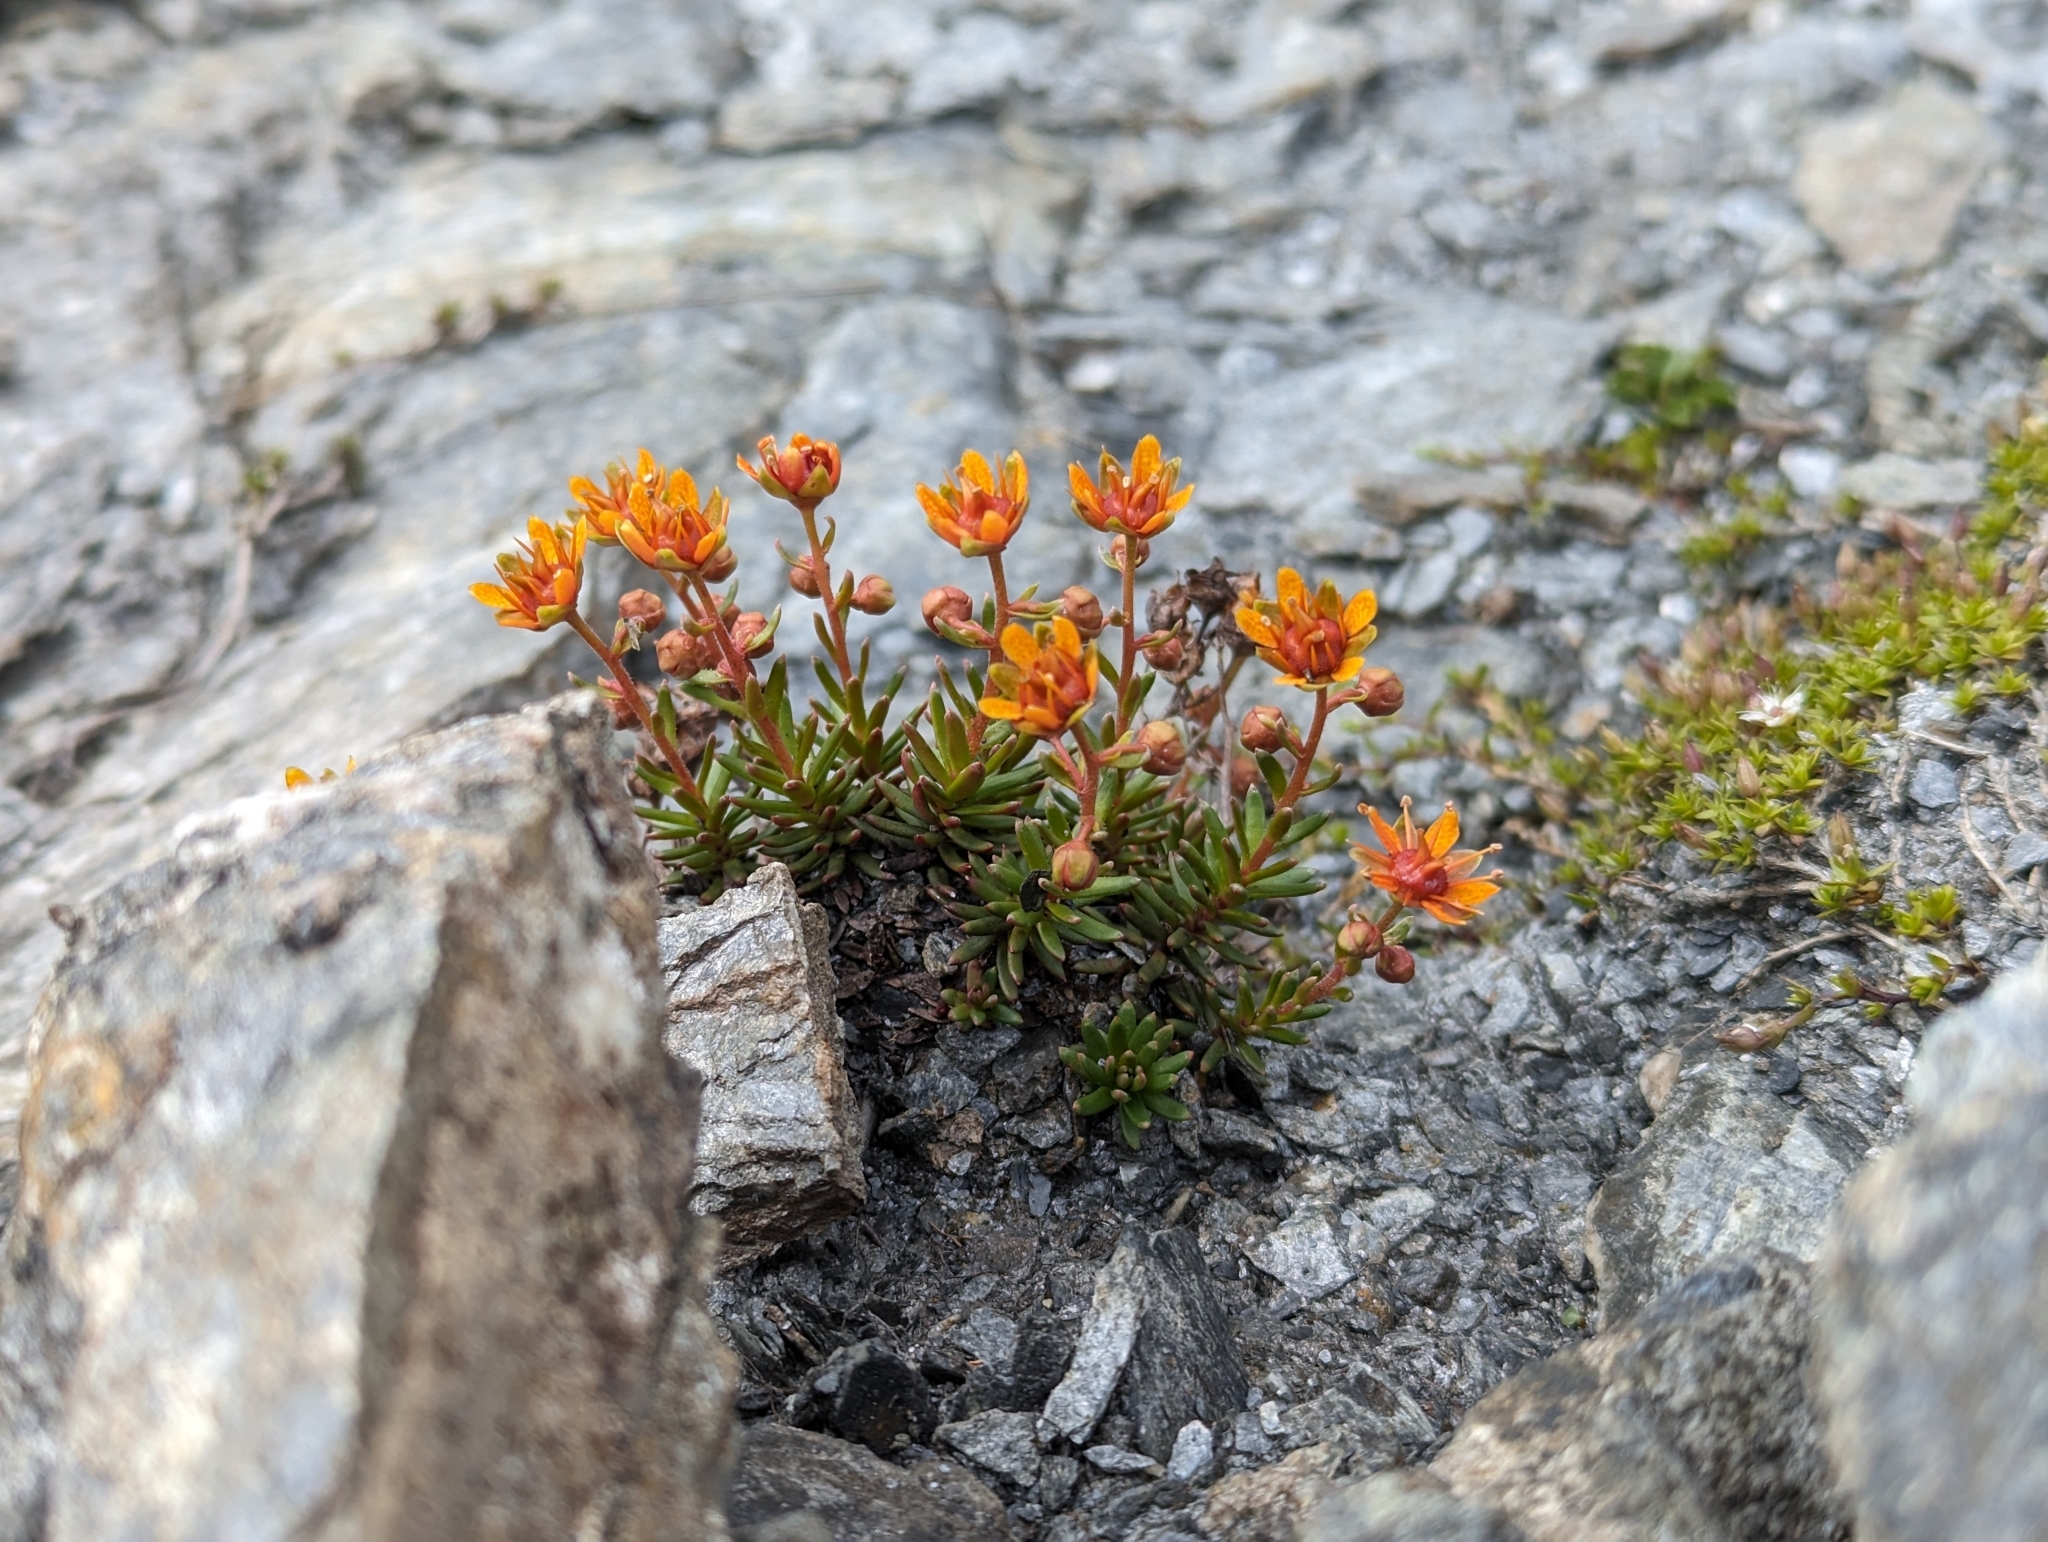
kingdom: Plantae
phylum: Tracheophyta
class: Magnoliopsida
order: Saxifragales
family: Saxifragaceae
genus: Saxifraga
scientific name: Saxifraga aizoides
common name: Yellow mountain saxifrage
